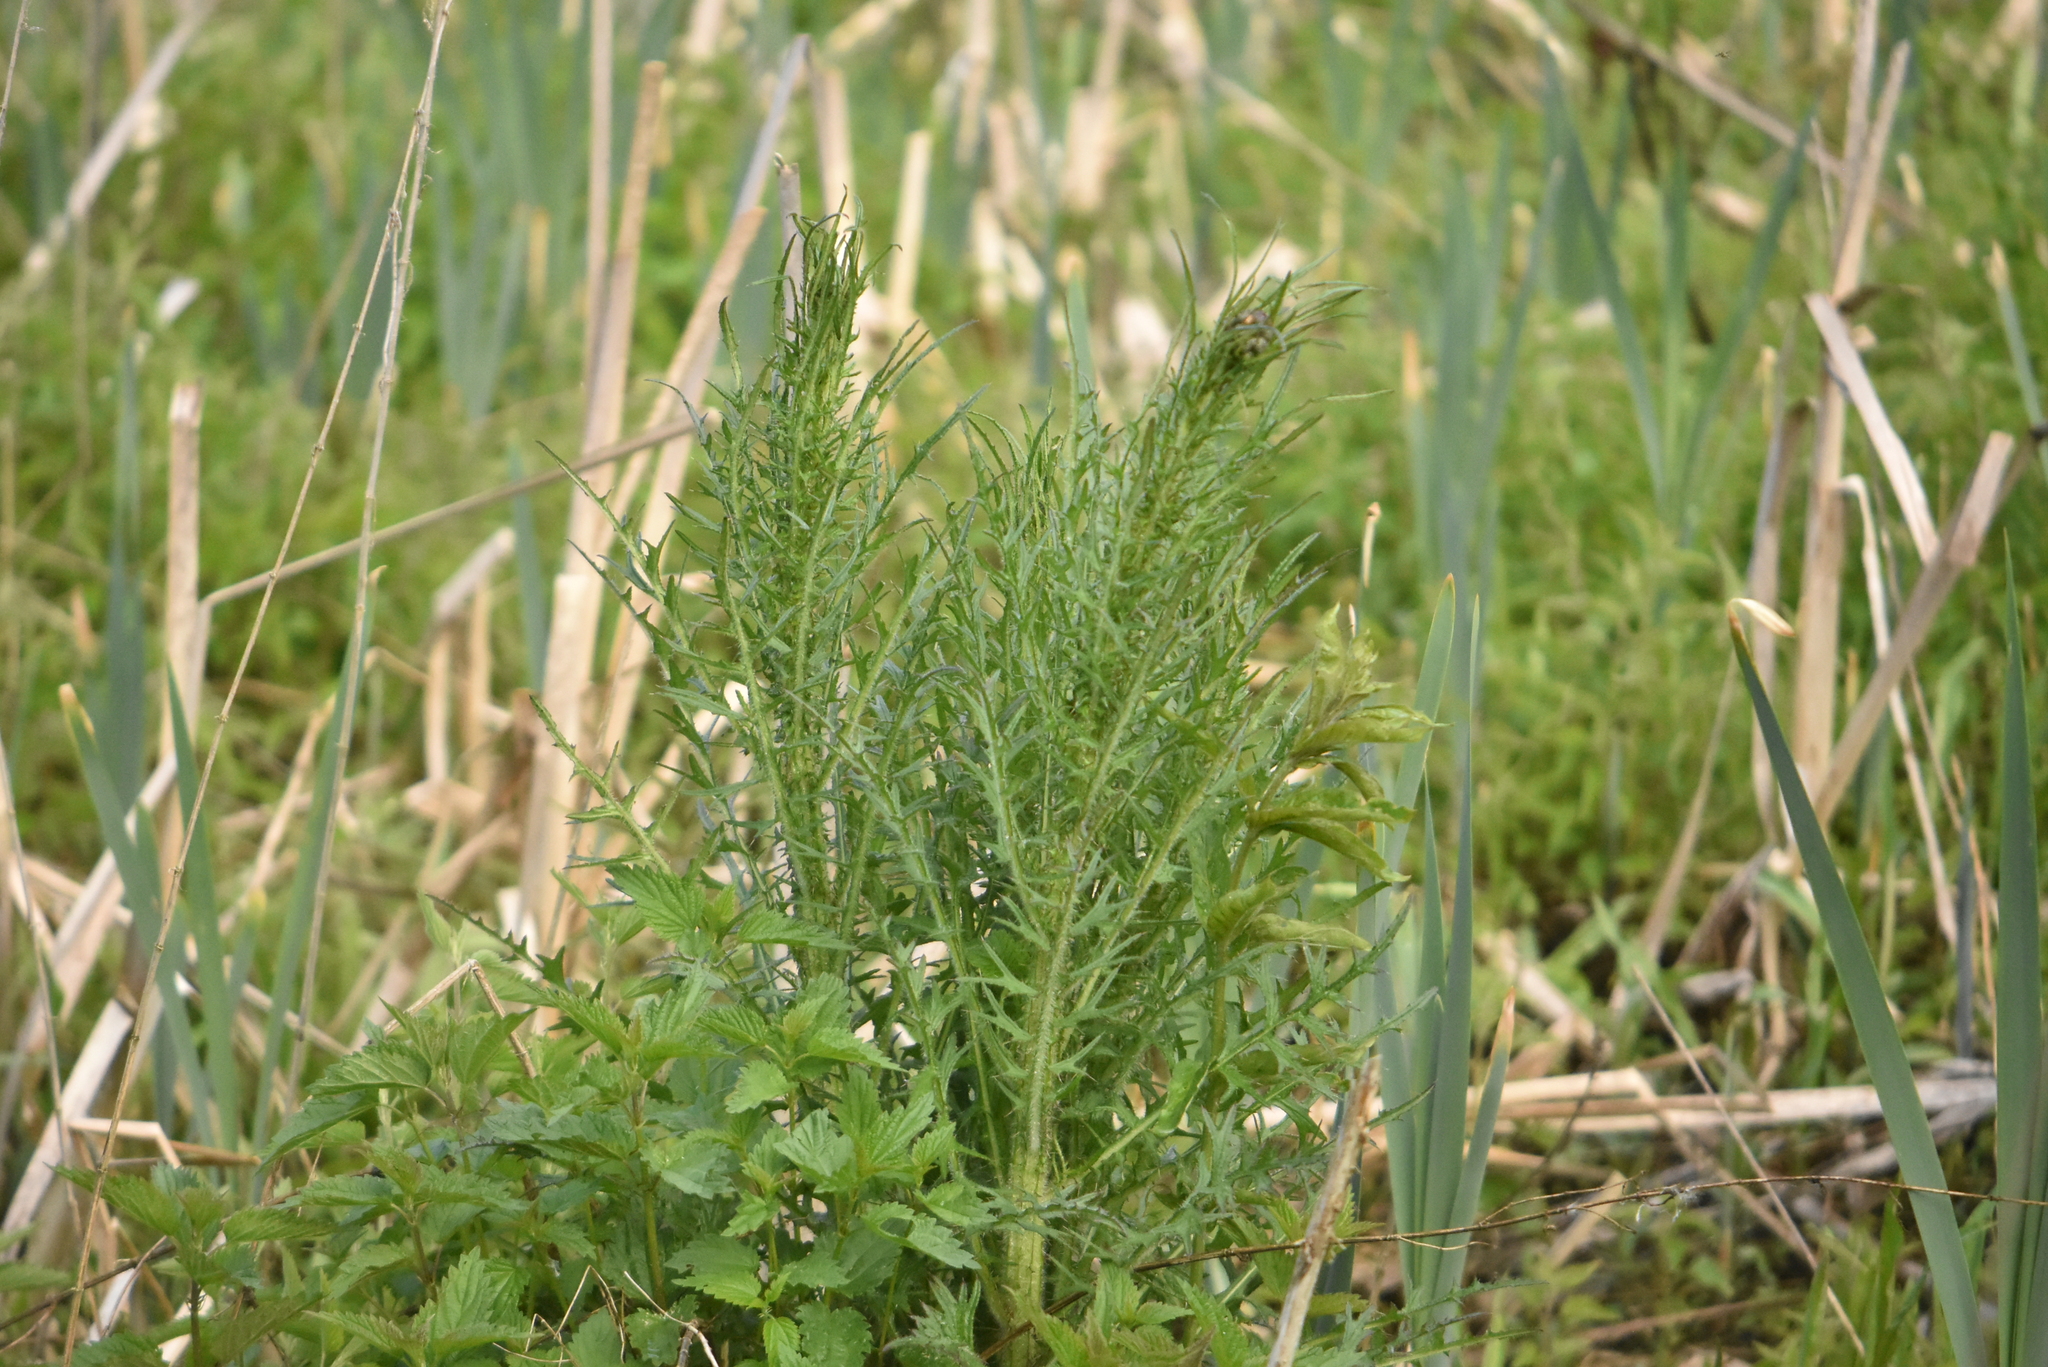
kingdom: Plantae
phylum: Tracheophyta
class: Magnoliopsida
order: Asterales
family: Asteraceae
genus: Cirsium
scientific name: Cirsium palustre
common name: Marsh thistle
